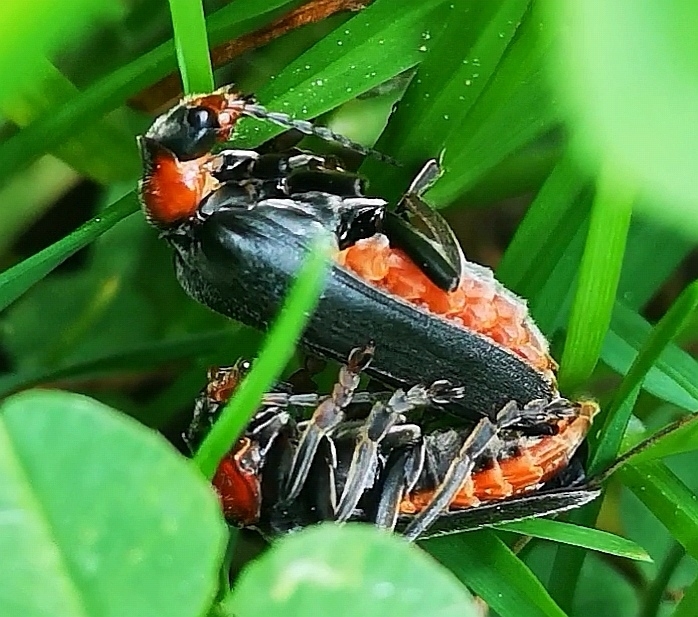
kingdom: Animalia
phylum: Arthropoda
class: Insecta
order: Coleoptera
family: Cantharidae
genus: Cantharis
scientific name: Cantharis fusca
